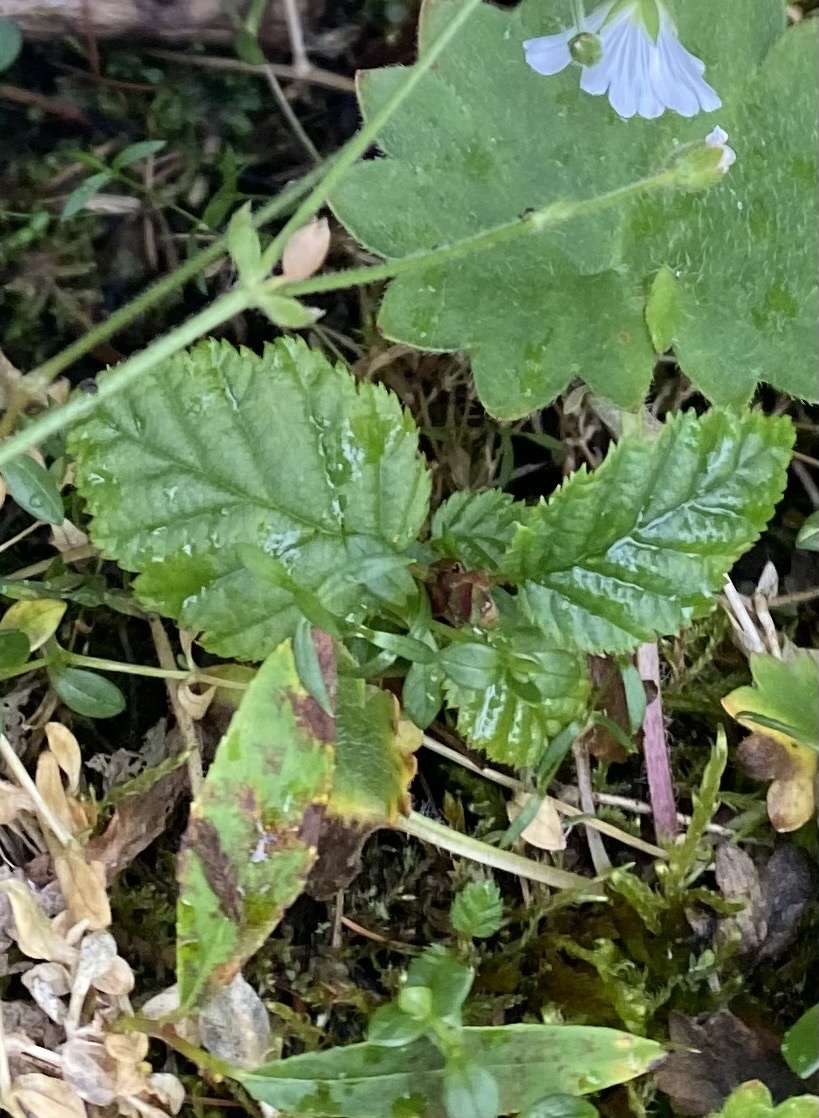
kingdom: Plantae
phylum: Tracheophyta
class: Magnoliopsida
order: Fagales
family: Betulaceae
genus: Alnus
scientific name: Alnus alnobetula
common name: Green alder
